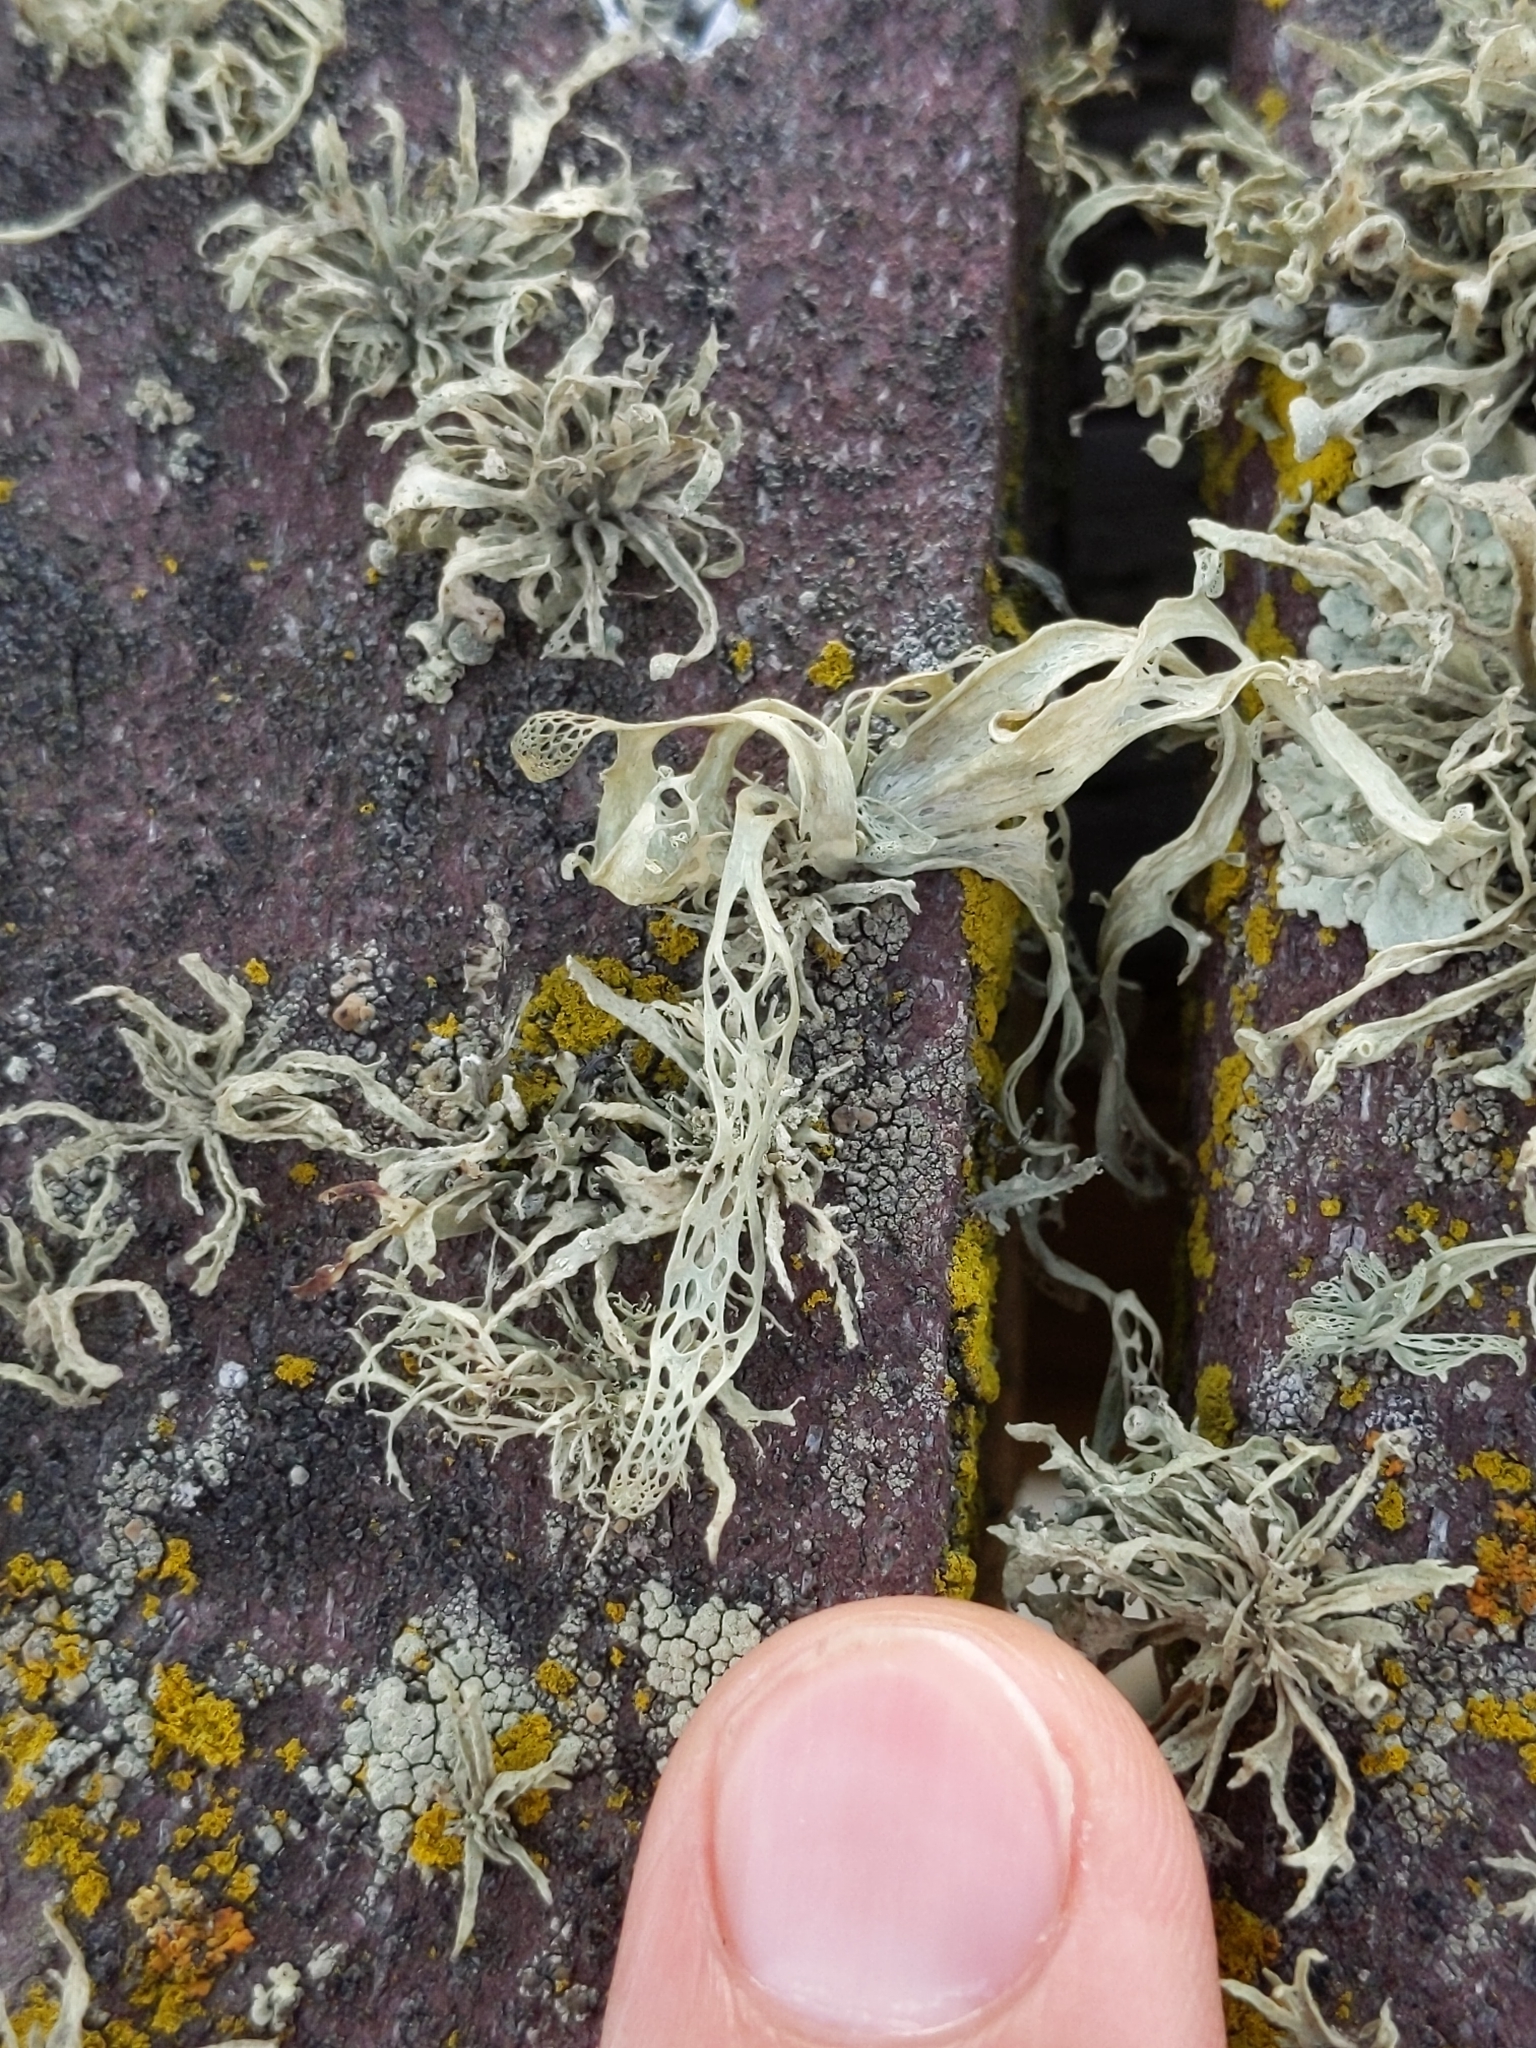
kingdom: Fungi
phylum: Ascomycota
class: Lecanoromycetes
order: Lecanorales
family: Ramalinaceae
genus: Ramalina
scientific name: Ramalina menziesii
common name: Lace lichen
